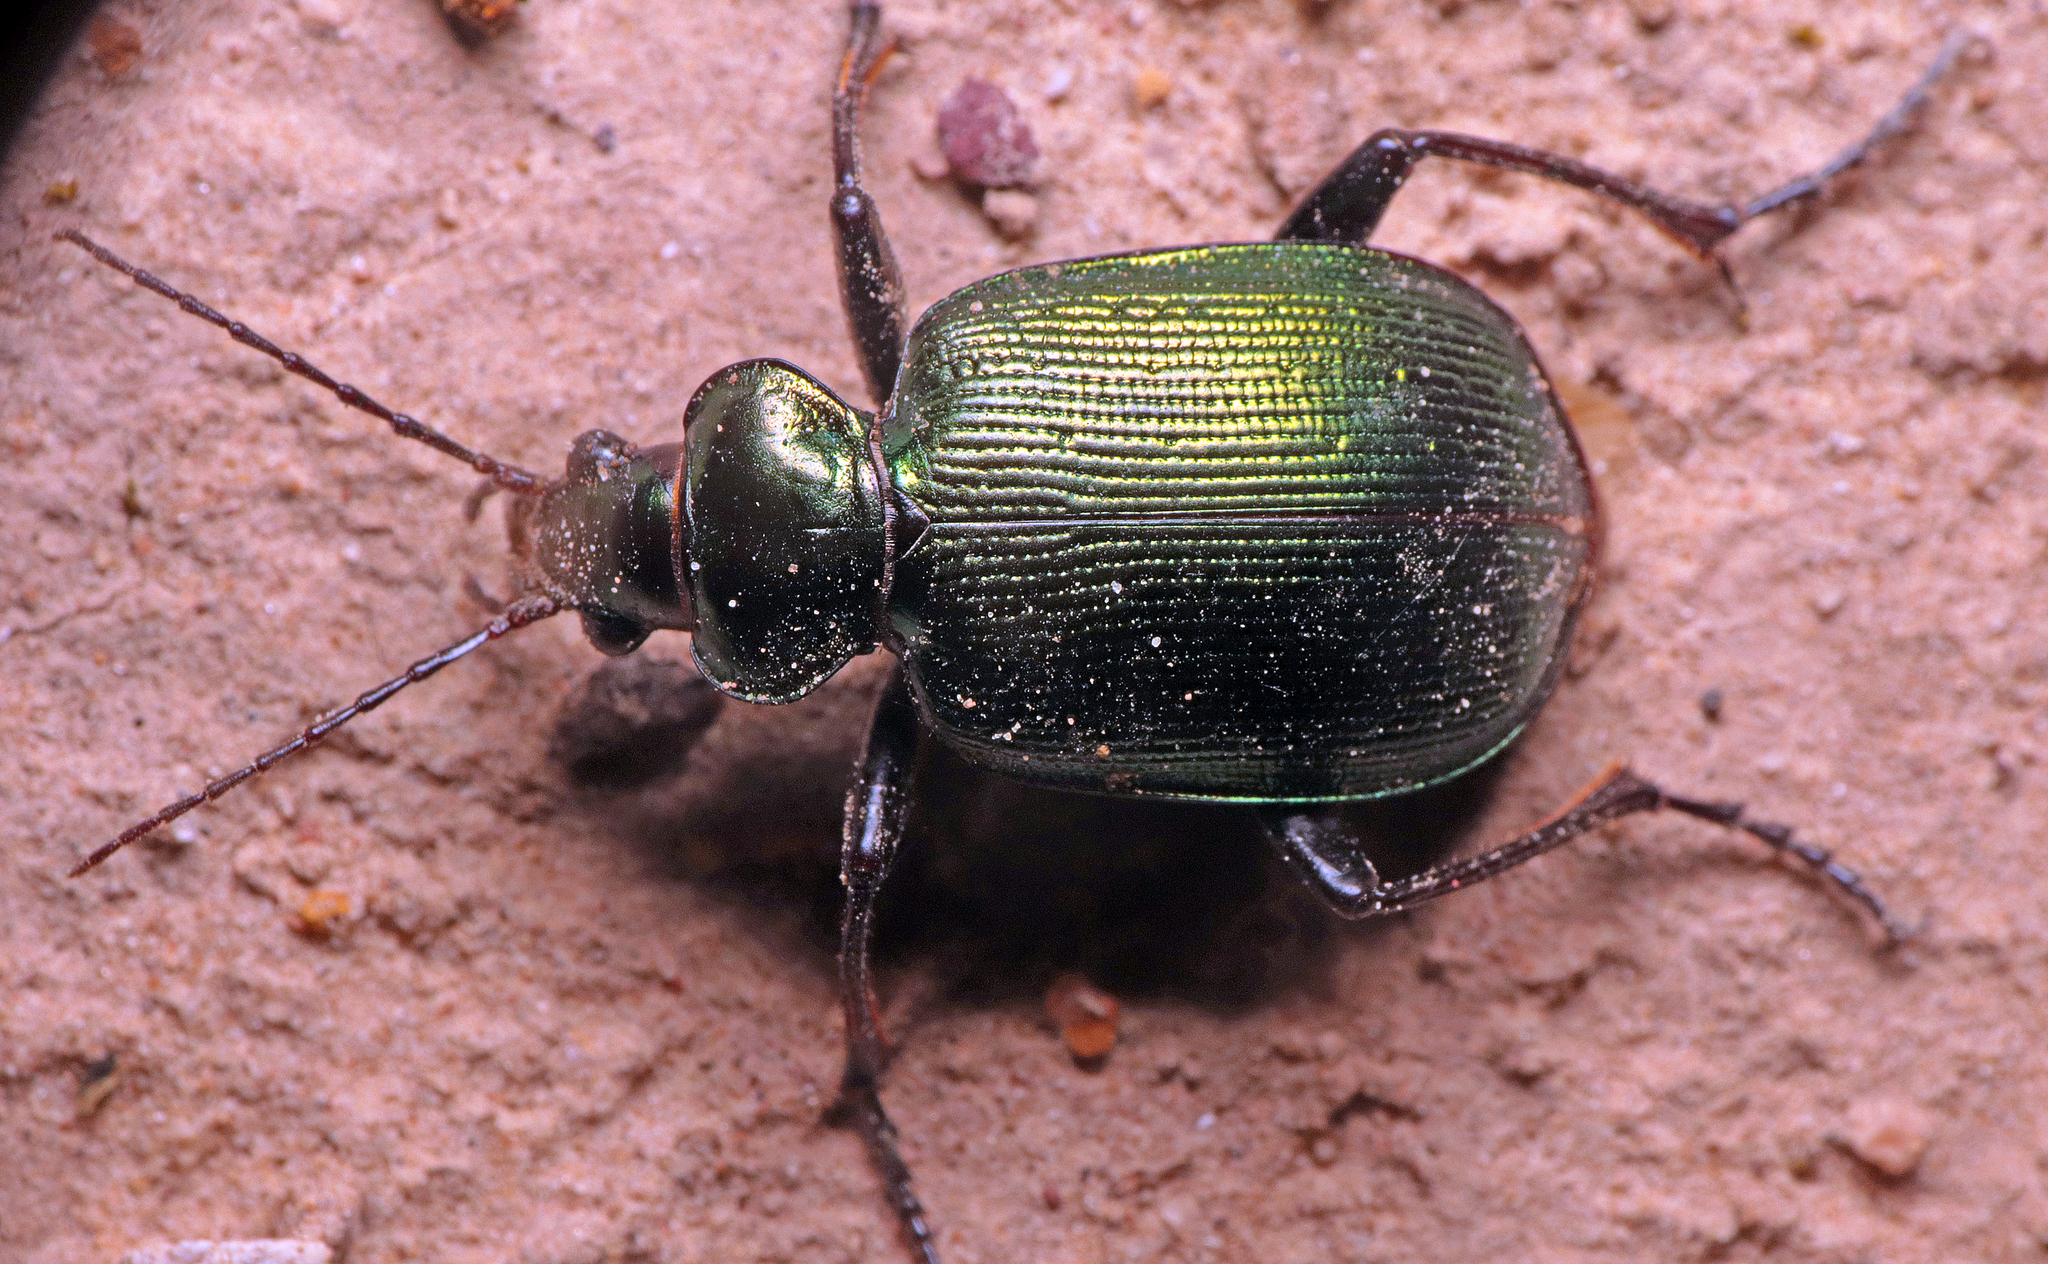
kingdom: Animalia
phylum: Arthropoda
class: Insecta
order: Coleoptera
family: Carabidae
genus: Calosoma
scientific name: Calosoma schayeri
